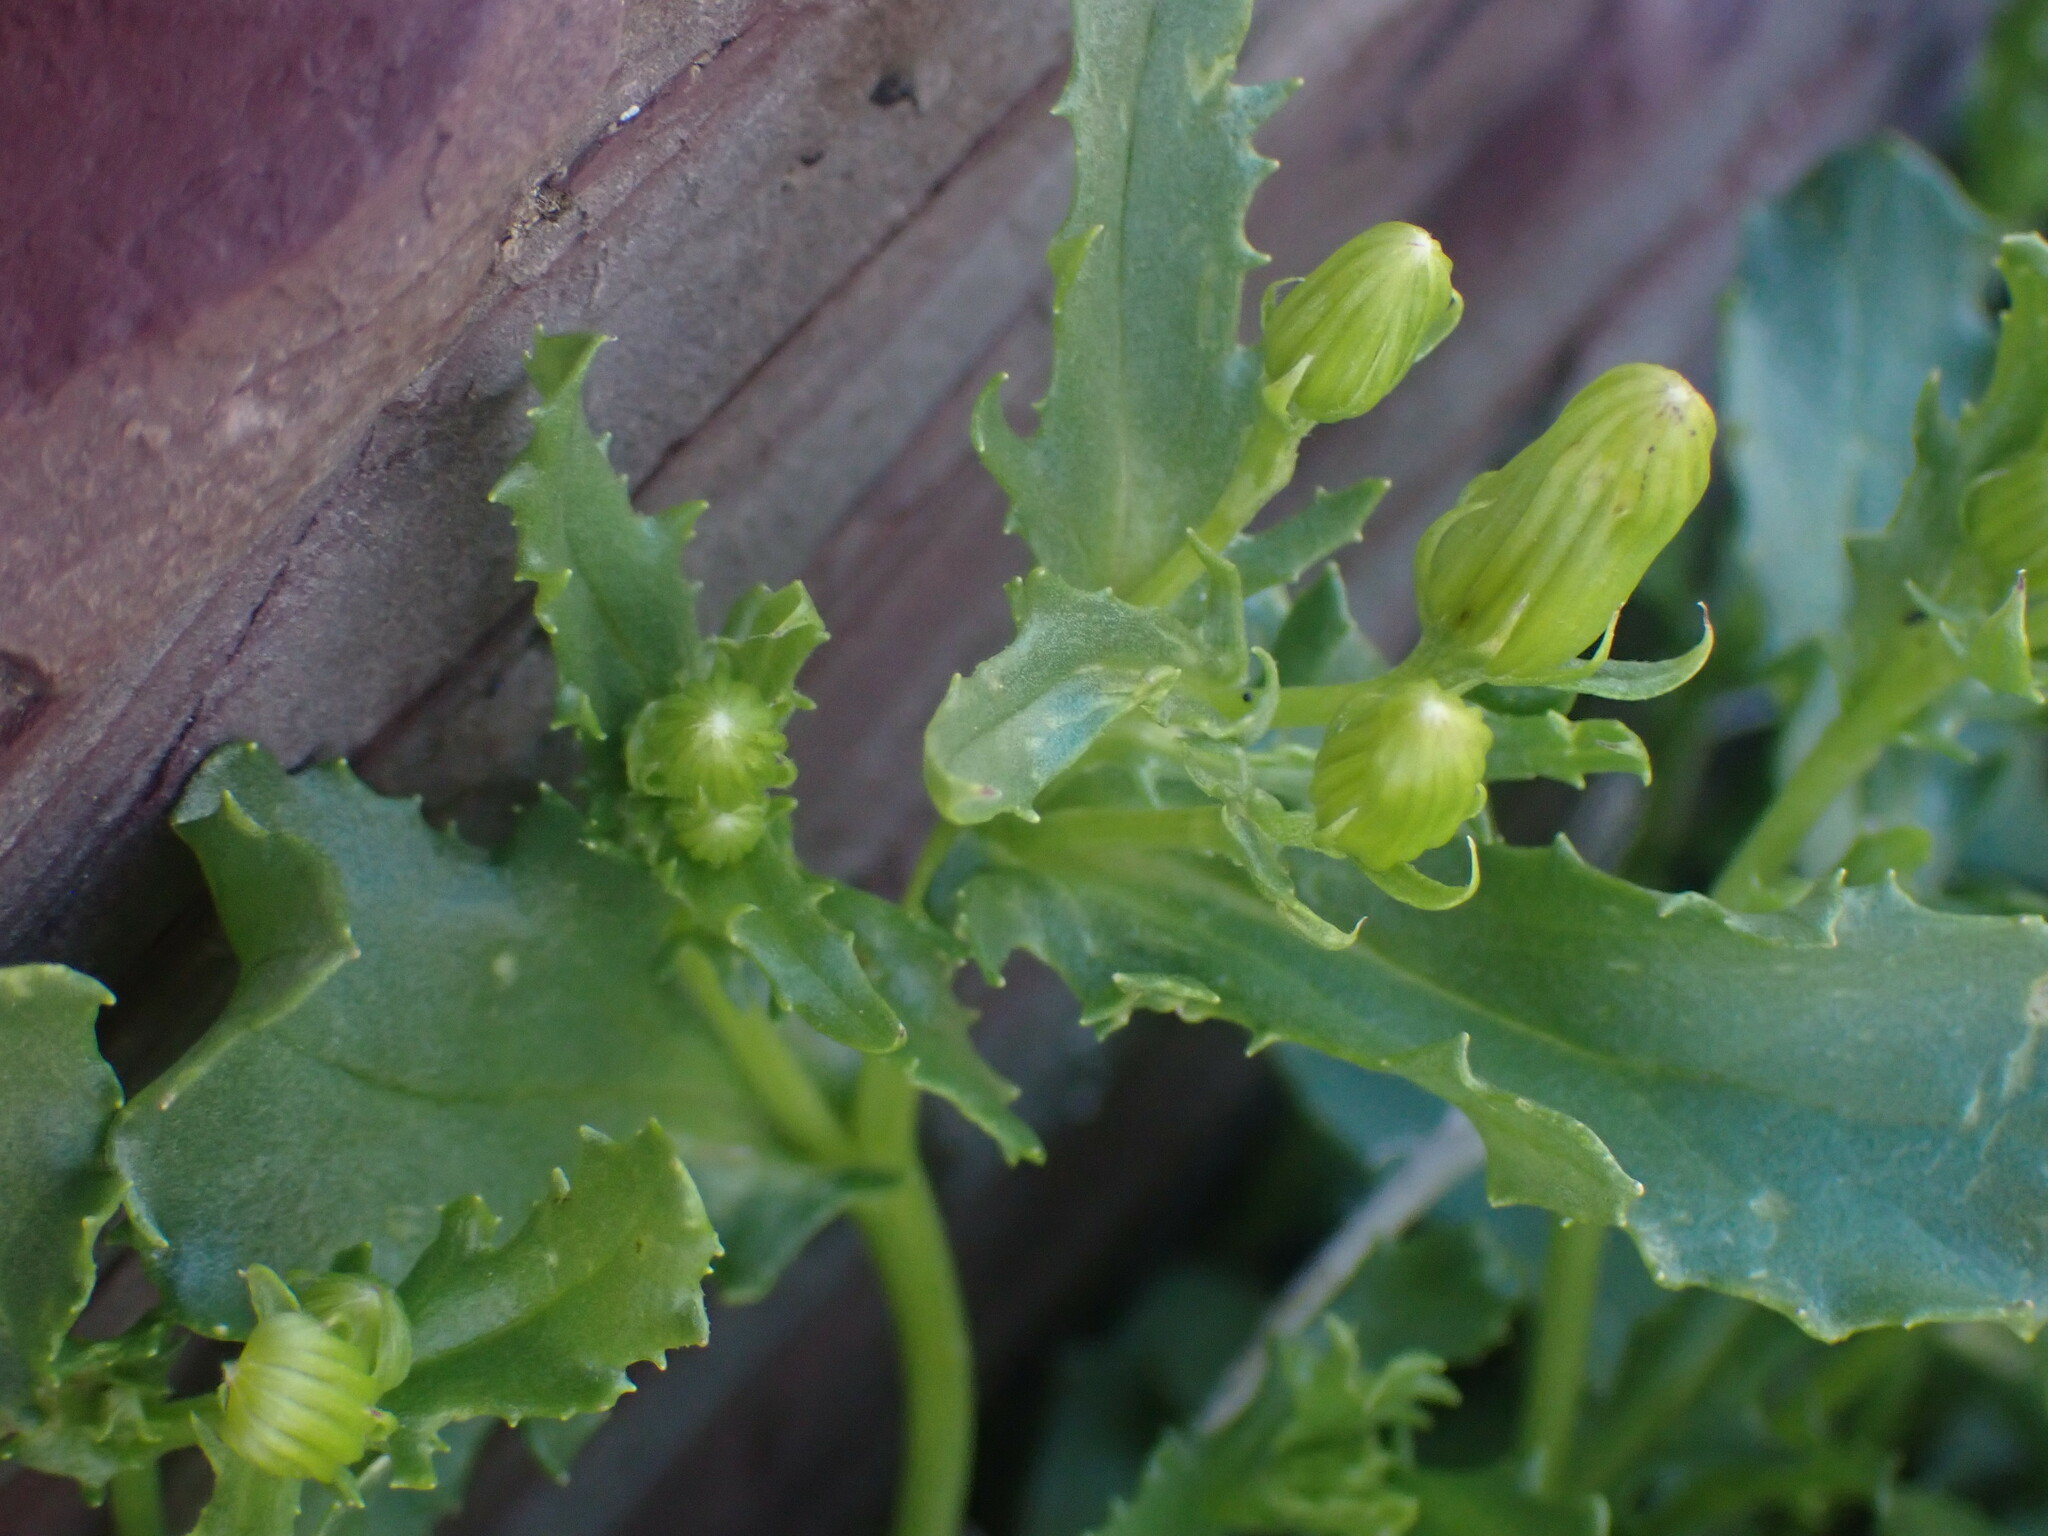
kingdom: Plantae
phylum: Tracheophyta
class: Magnoliopsida
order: Asterales
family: Asteraceae
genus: Senecio
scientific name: Senecio fremontii
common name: Fremont's groundsel
